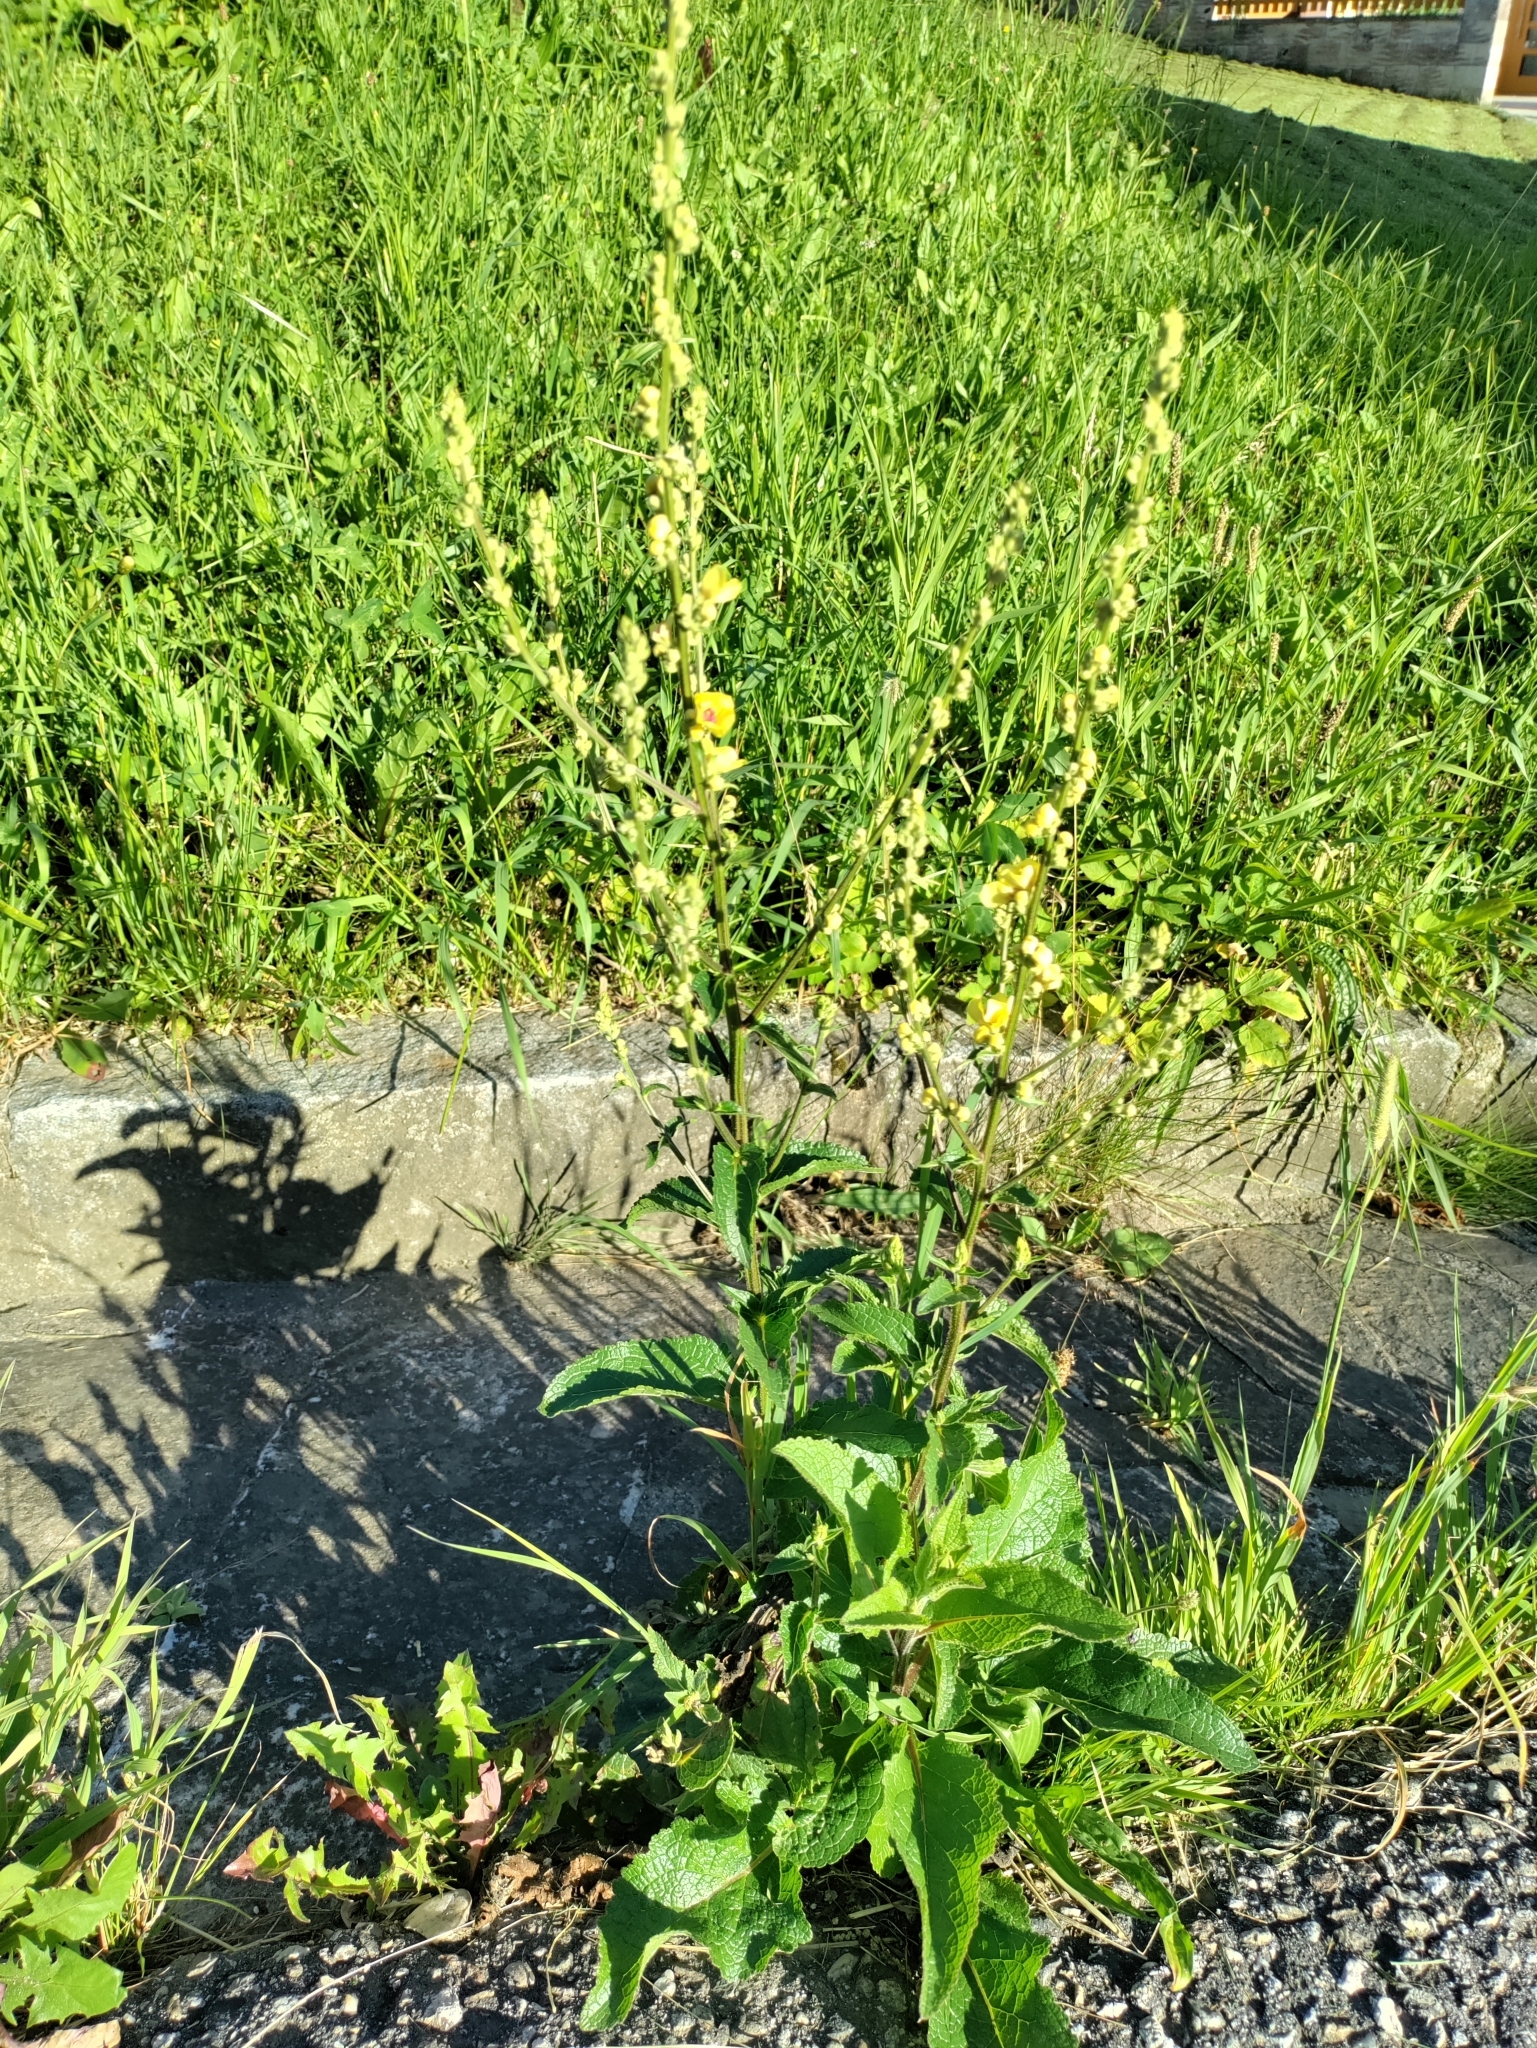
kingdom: Plantae
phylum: Tracheophyta
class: Magnoliopsida
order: Lamiales
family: Scrophulariaceae
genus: Verbascum
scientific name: Verbascum chaixii
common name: Nettle-leaved mullein
